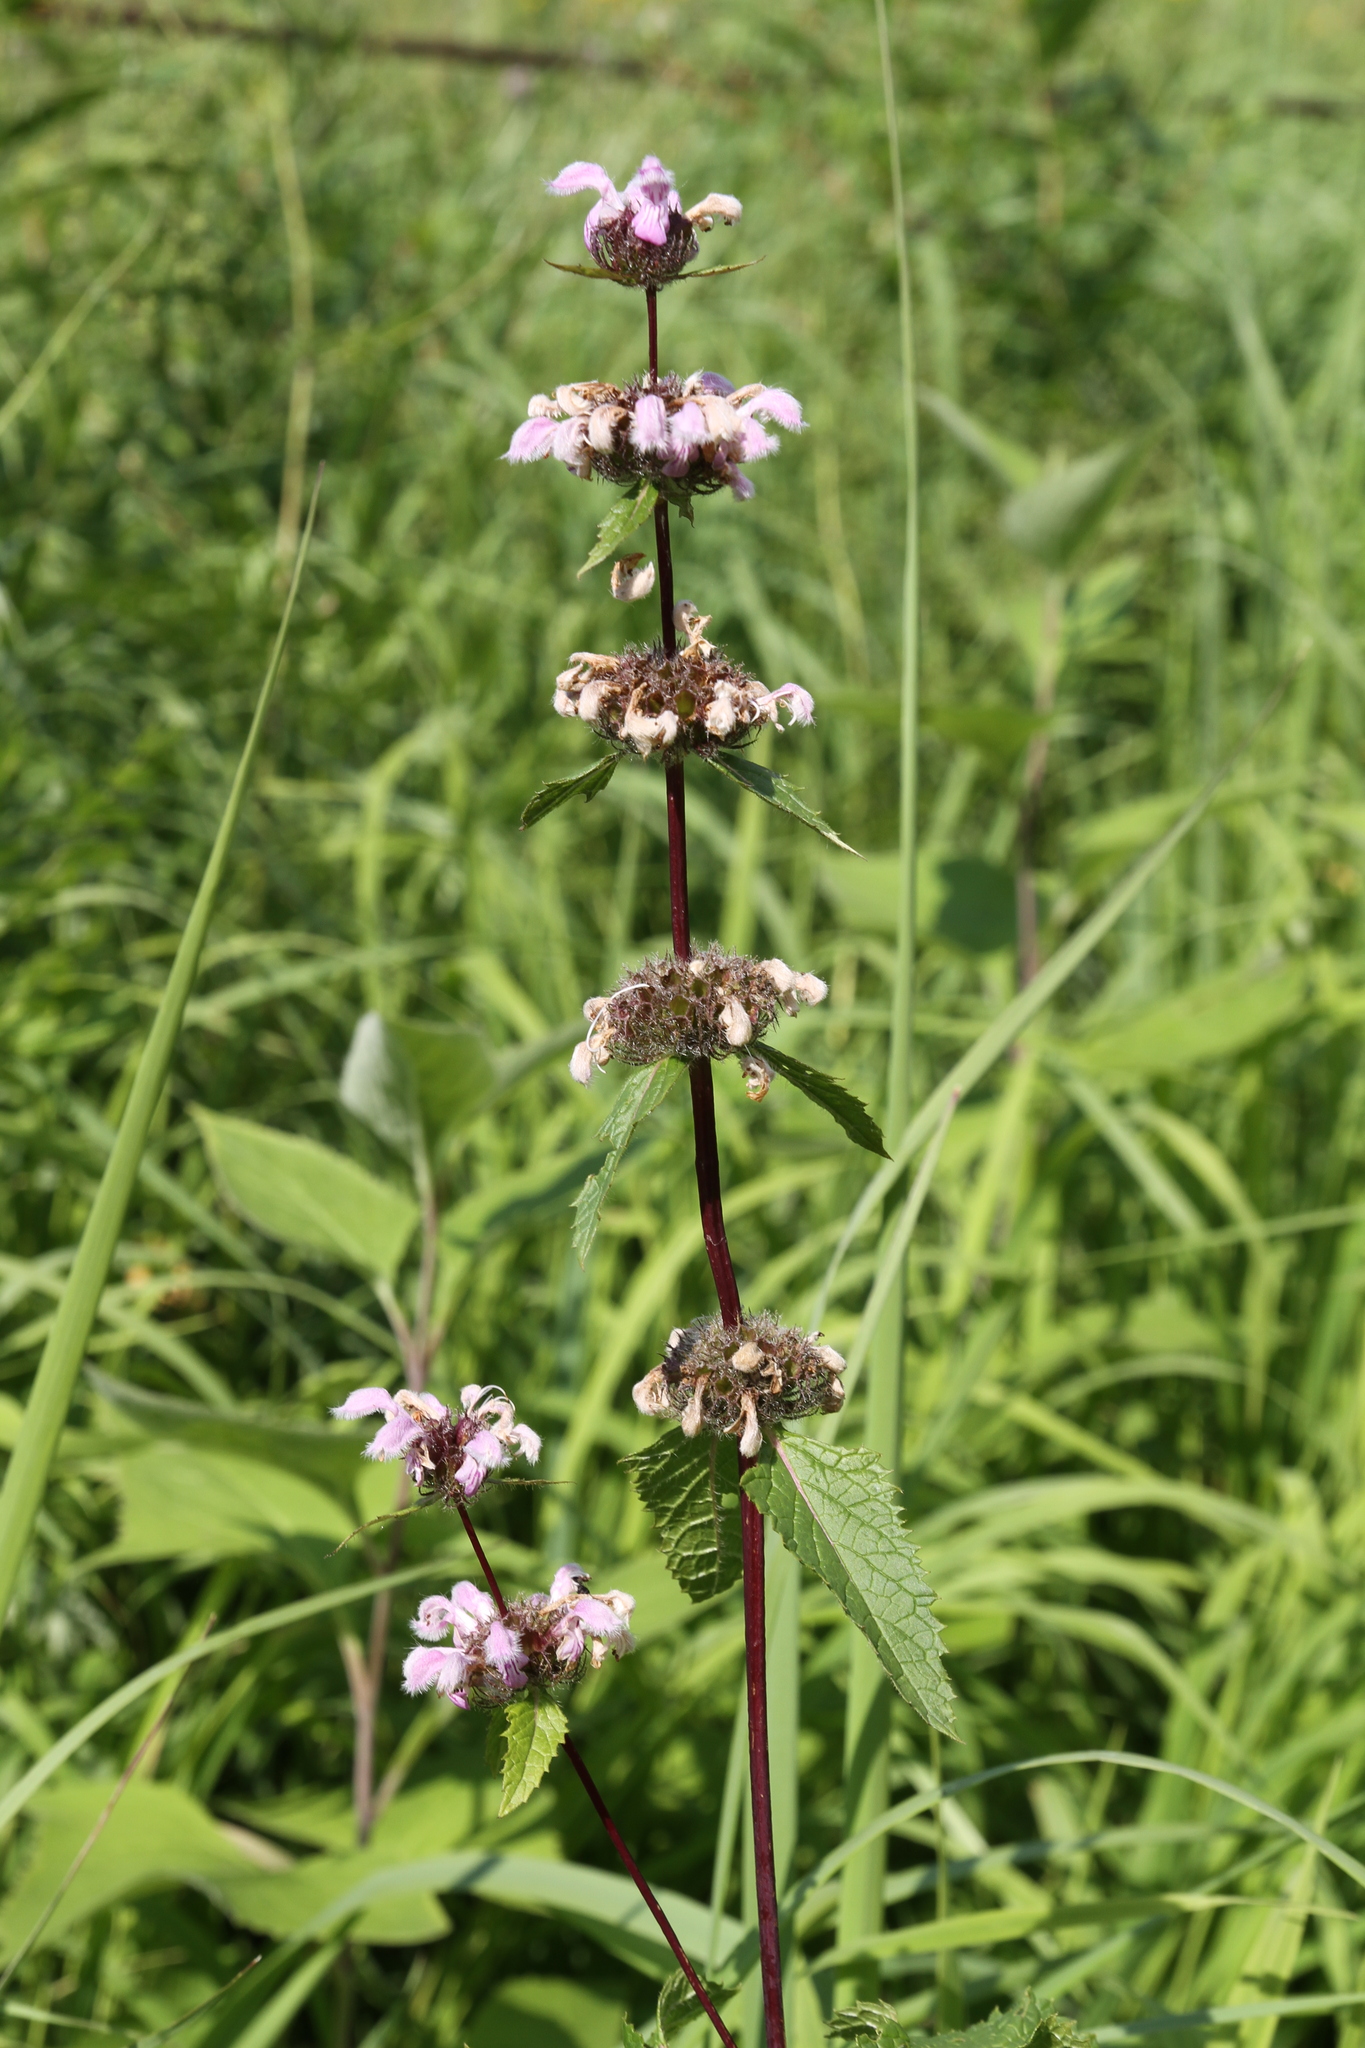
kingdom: Plantae
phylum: Tracheophyta
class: Magnoliopsida
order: Lamiales
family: Lamiaceae
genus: Phlomoides
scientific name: Phlomoides tuberosa
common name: Tuberous jerusalem sage
